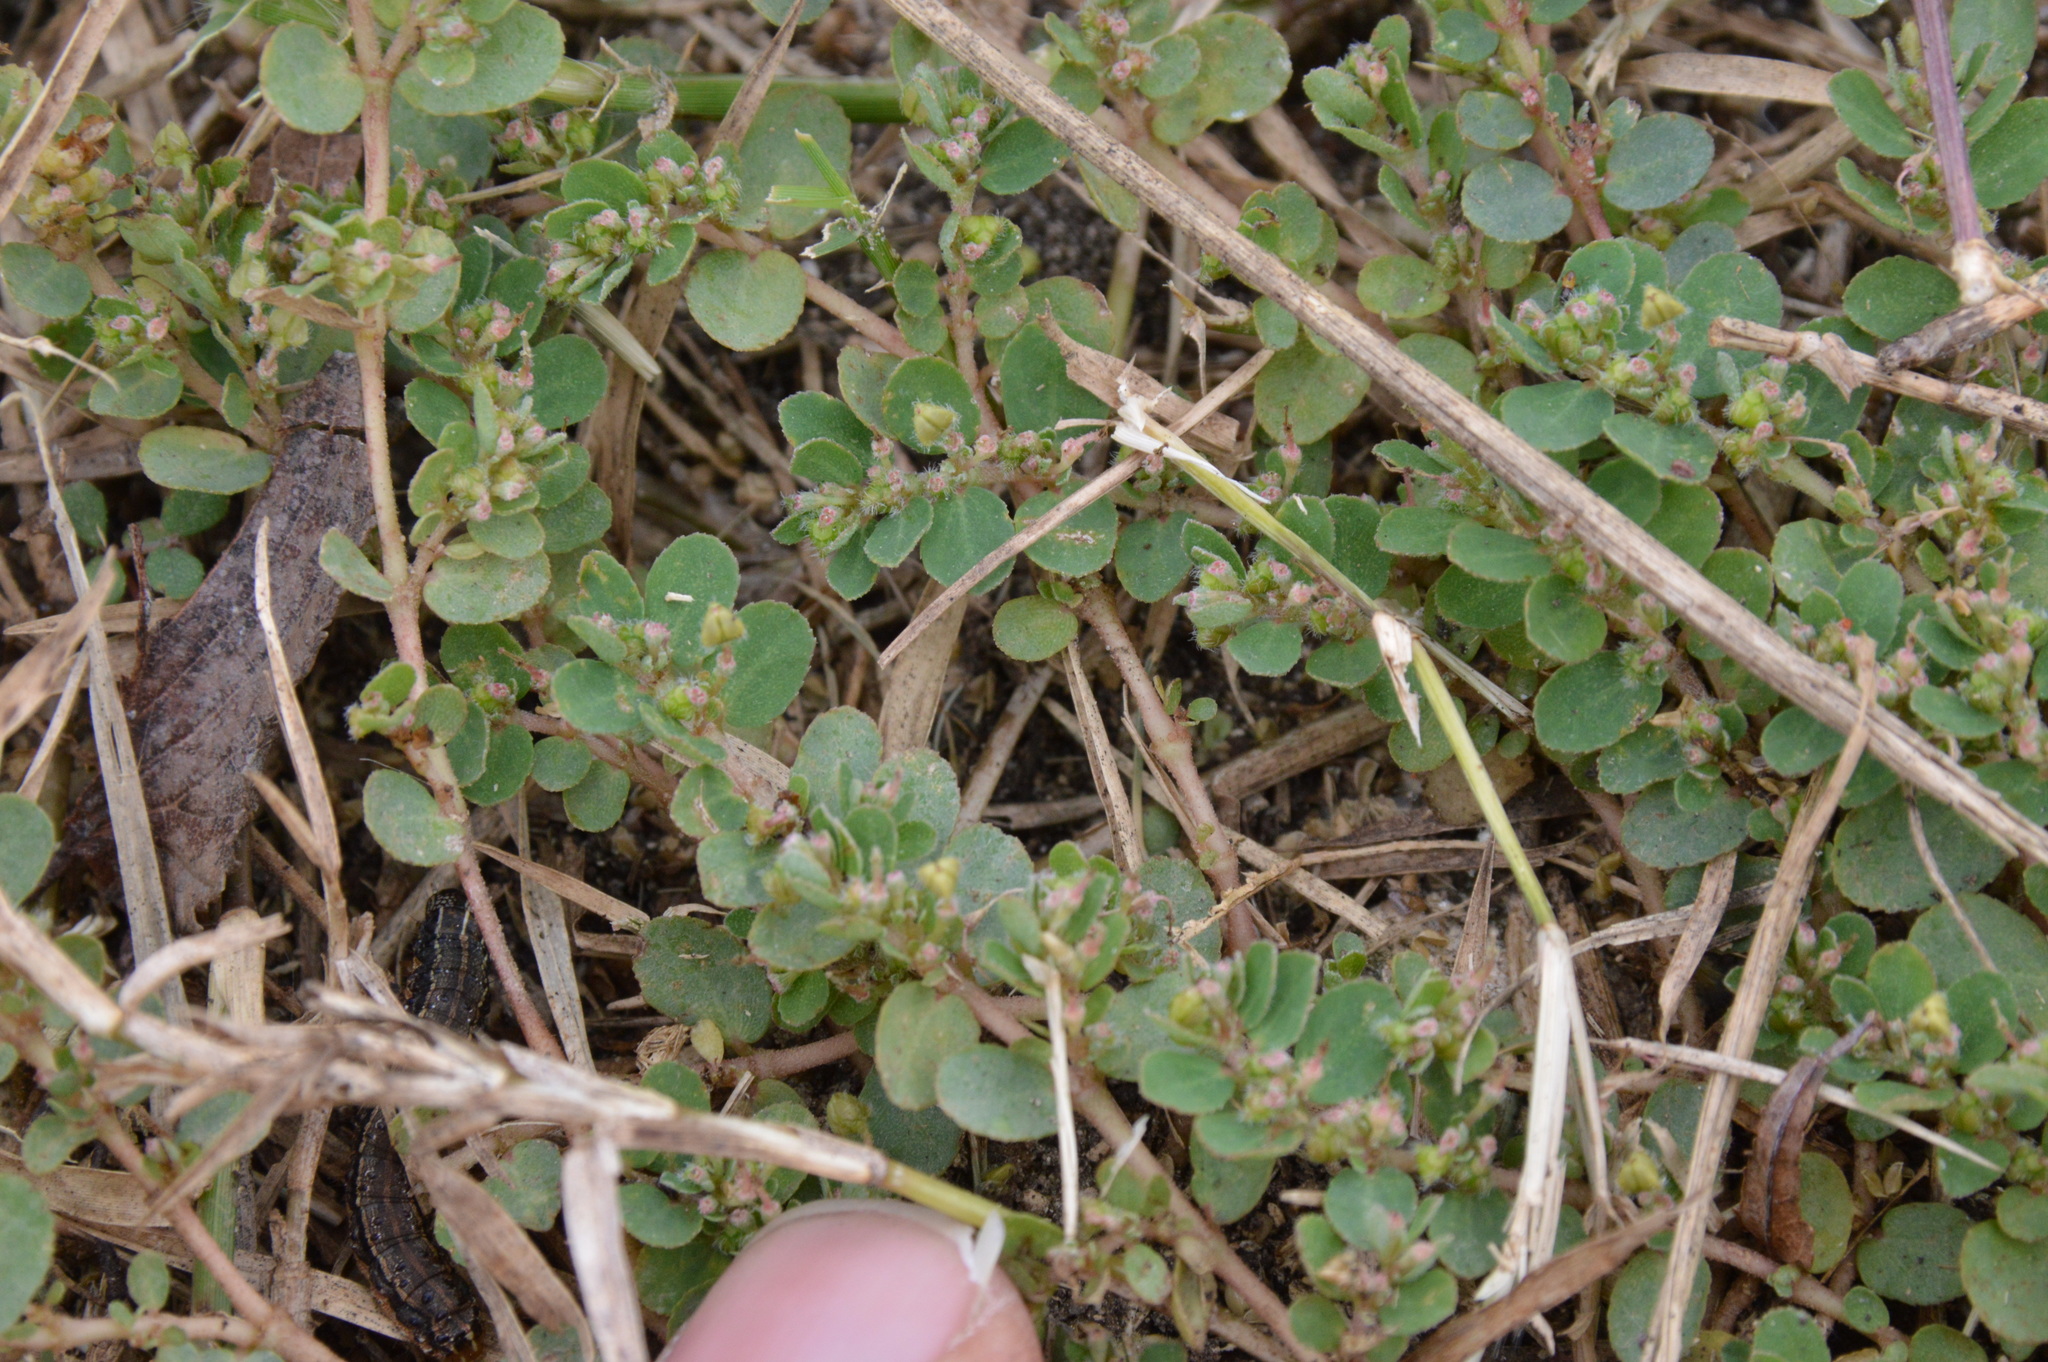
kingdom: Plantae
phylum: Tracheophyta
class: Magnoliopsida
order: Malpighiales
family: Euphorbiaceae
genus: Euphorbia
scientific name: Euphorbia prostrata
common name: Prostrate sandmat
